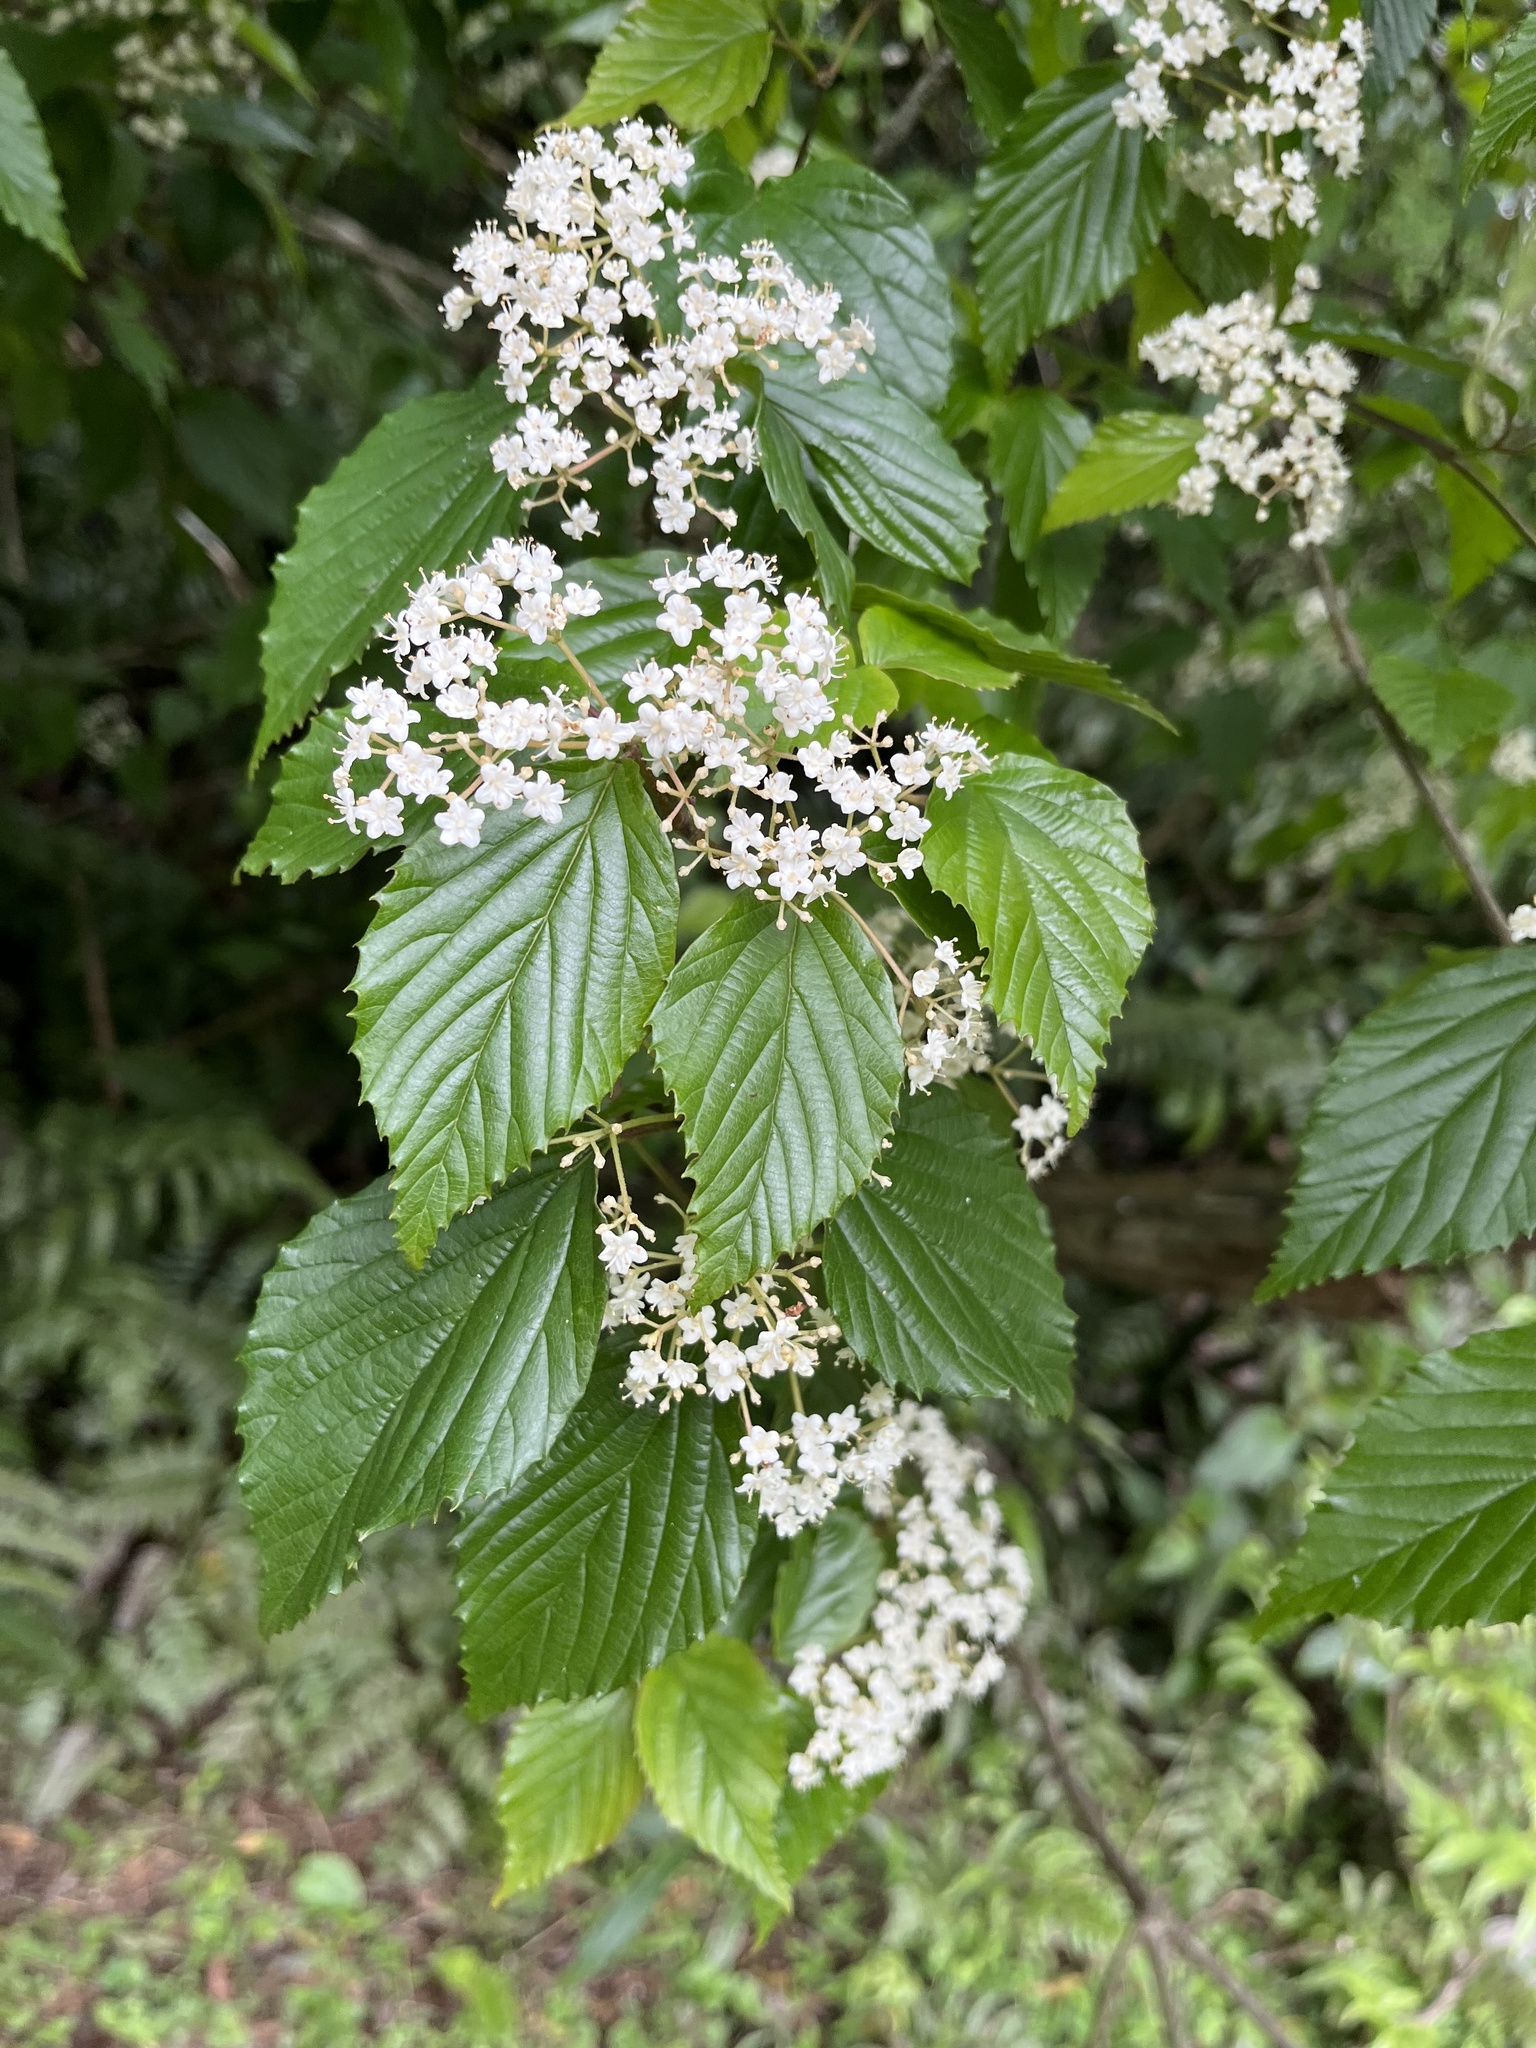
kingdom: Plantae
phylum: Tracheophyta
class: Magnoliopsida
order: Dipsacales
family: Viburnaceae
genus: Viburnum
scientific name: Viburnum luzonicum
